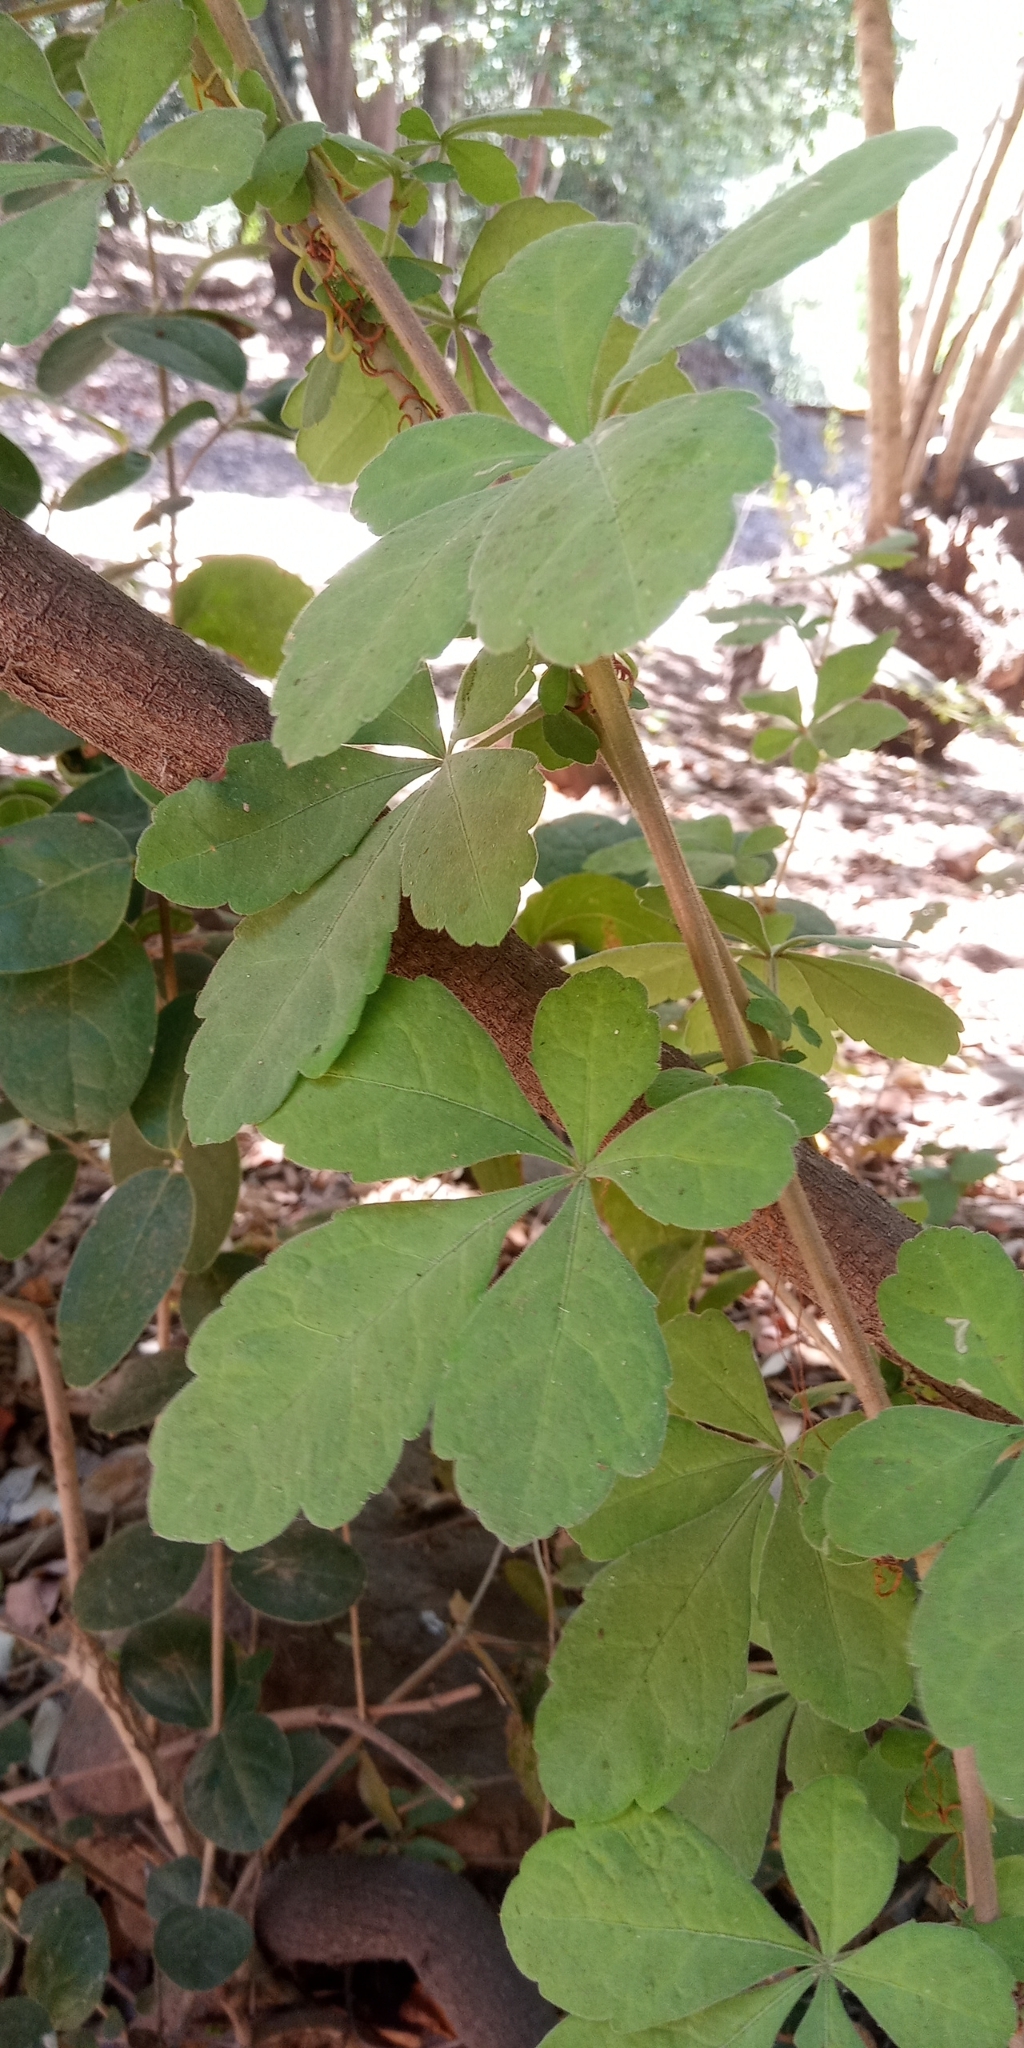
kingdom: Plantae
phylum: Tracheophyta
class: Magnoliopsida
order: Vitales
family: Vitaceae
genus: Clematicissus
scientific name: Clematicissus striata
